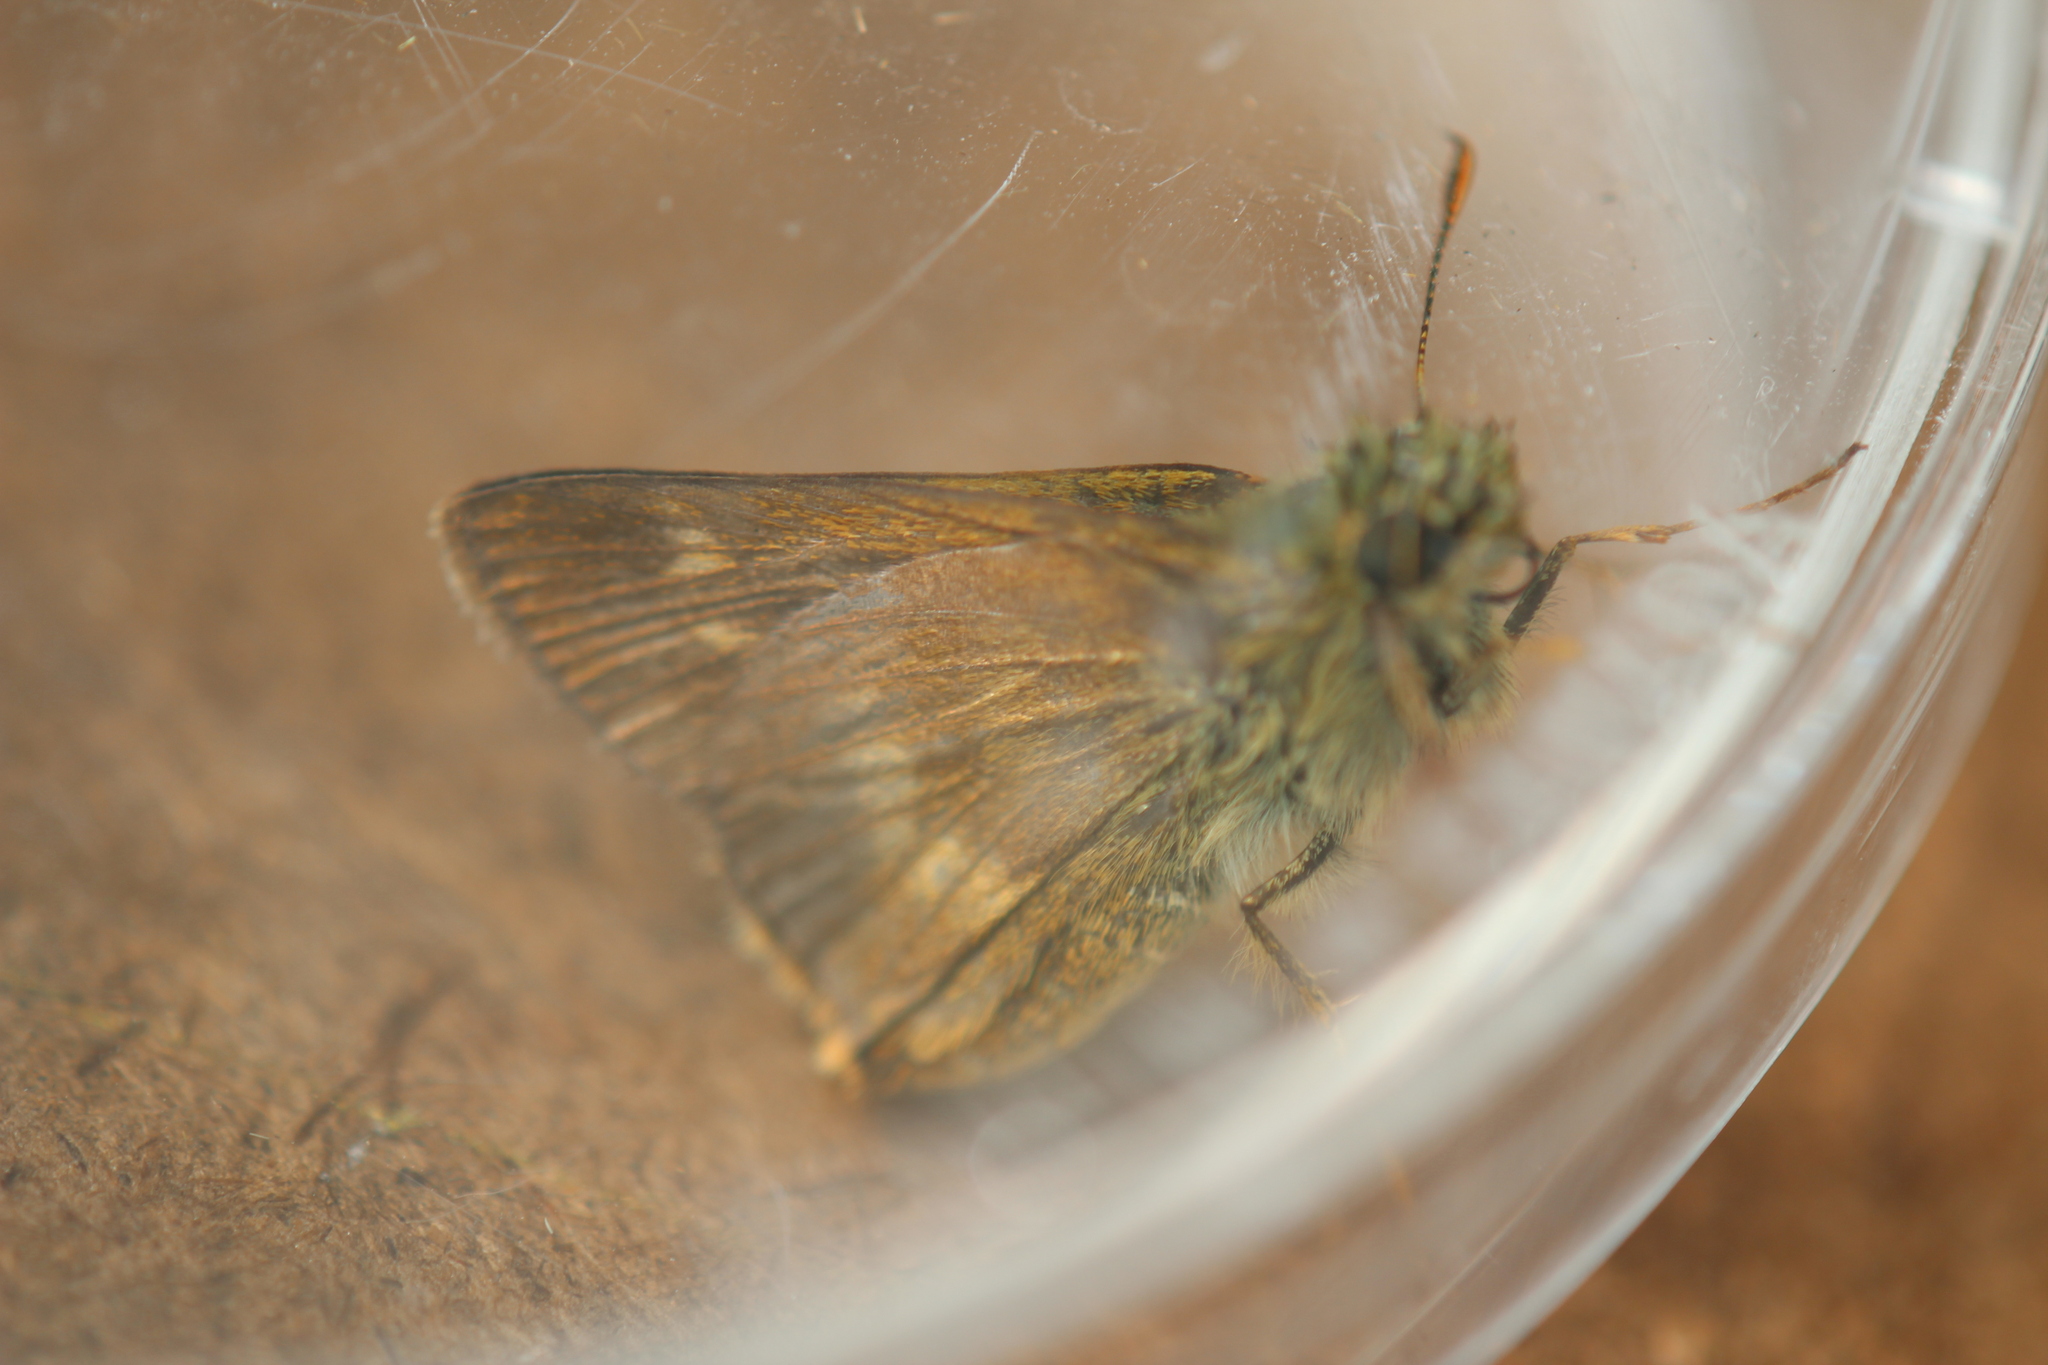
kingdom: Animalia
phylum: Arthropoda
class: Insecta
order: Lepidoptera
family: Hesperiidae
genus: Polites
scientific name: Polites egeremet
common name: Northern broken-dash
